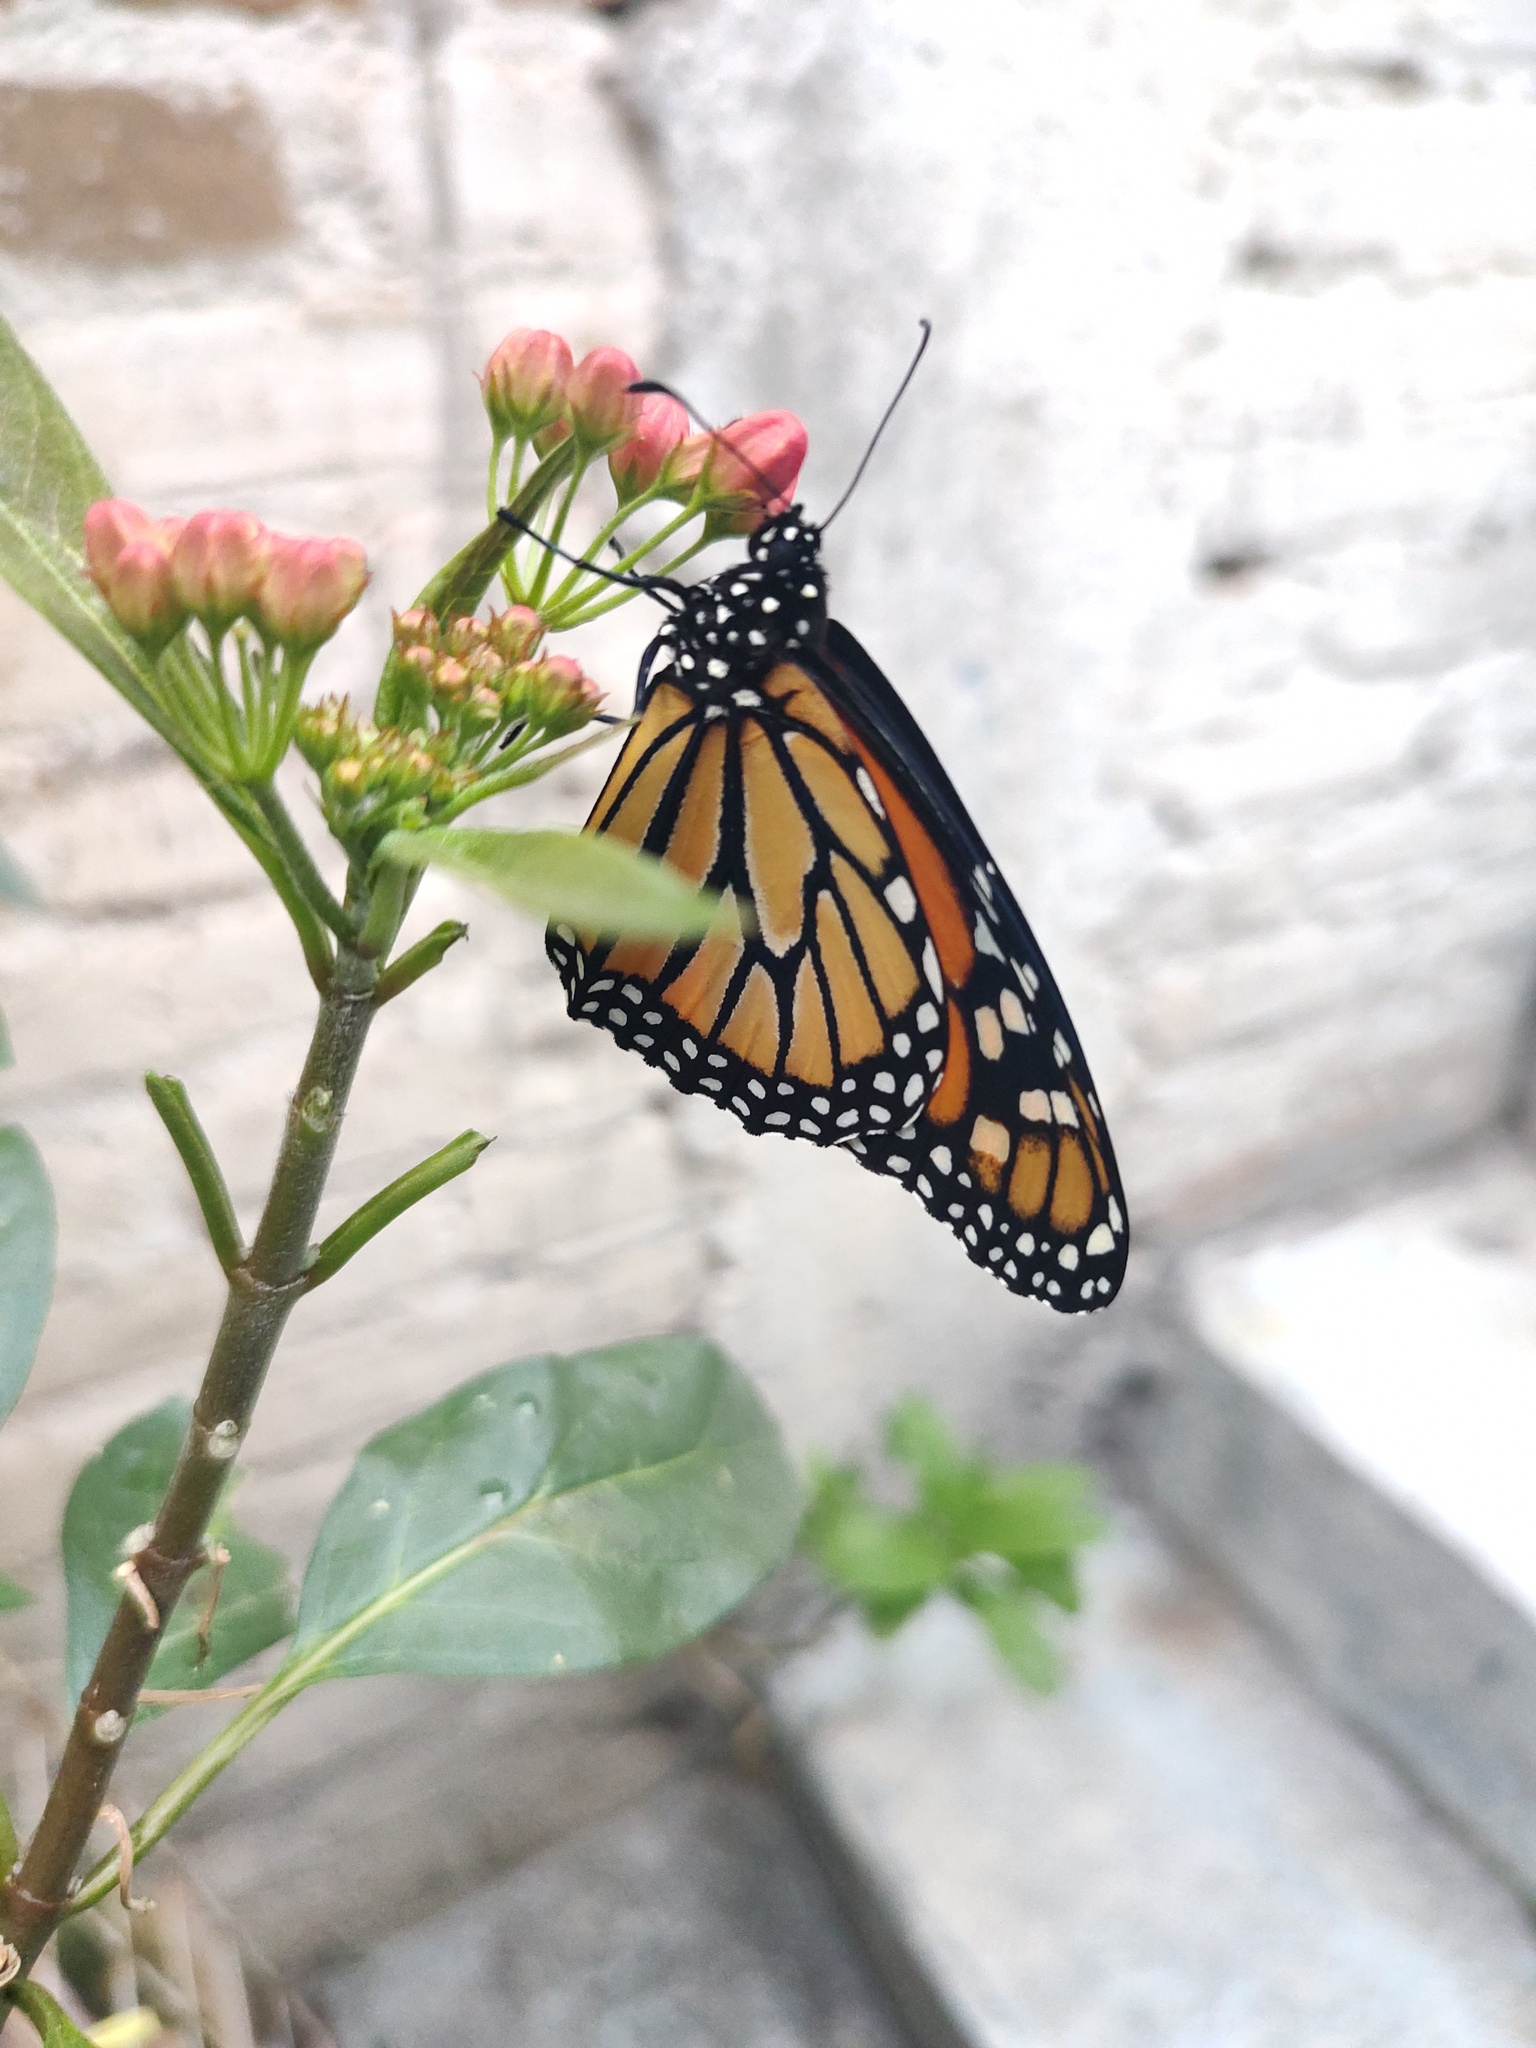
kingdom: Animalia
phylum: Arthropoda
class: Insecta
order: Lepidoptera
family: Nymphalidae
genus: Danaus
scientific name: Danaus plexippus
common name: Monarch
